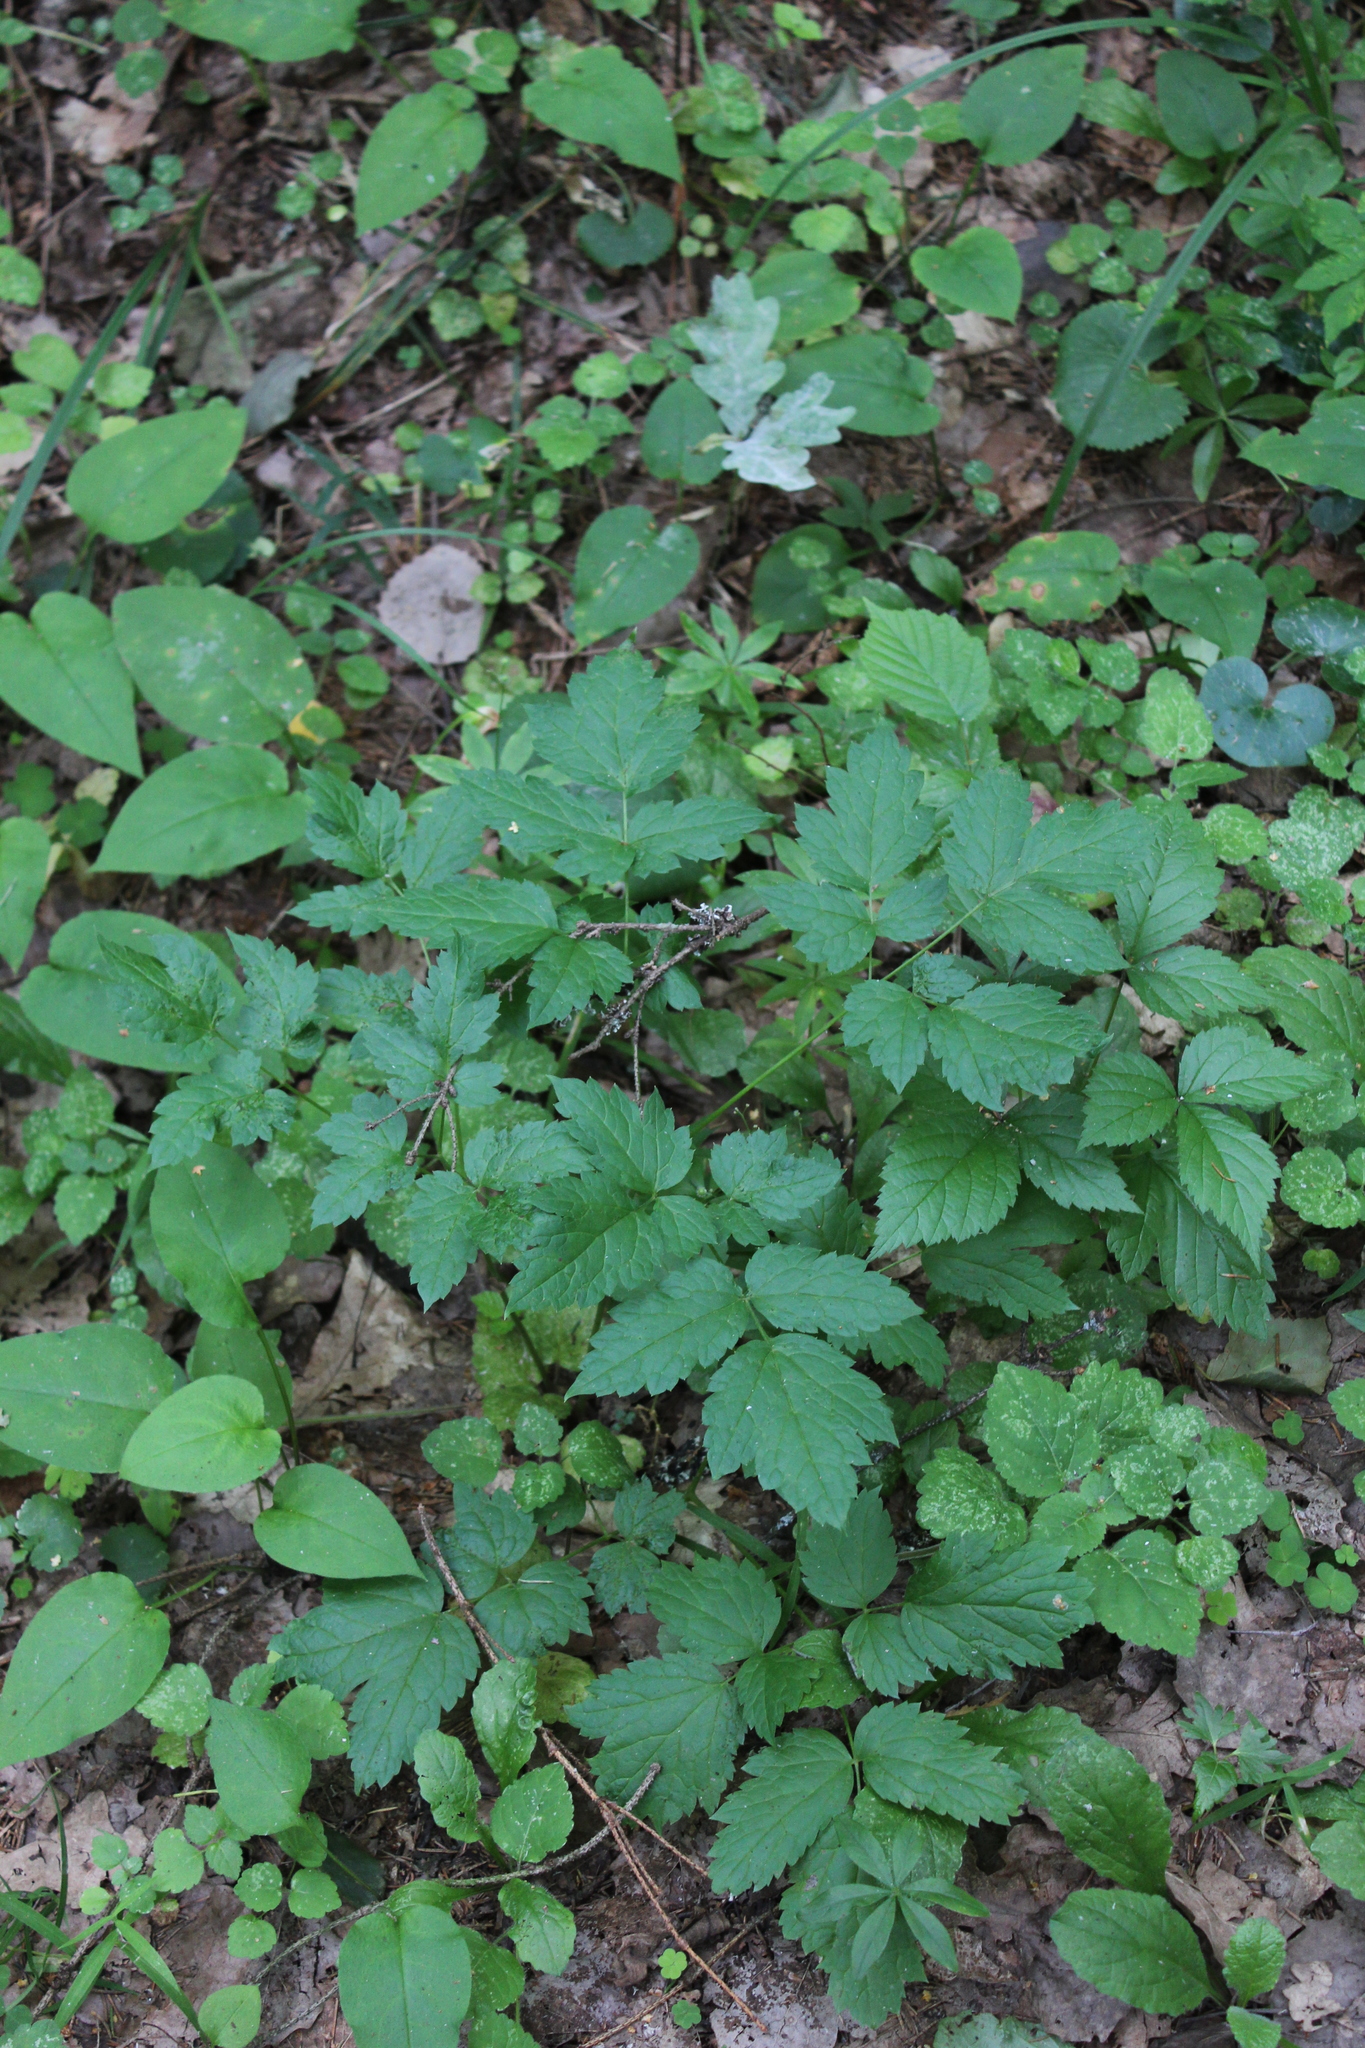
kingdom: Plantae
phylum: Tracheophyta
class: Magnoliopsida
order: Ranunculales
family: Ranunculaceae
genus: Actaea
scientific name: Actaea spicata
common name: Baneberry
